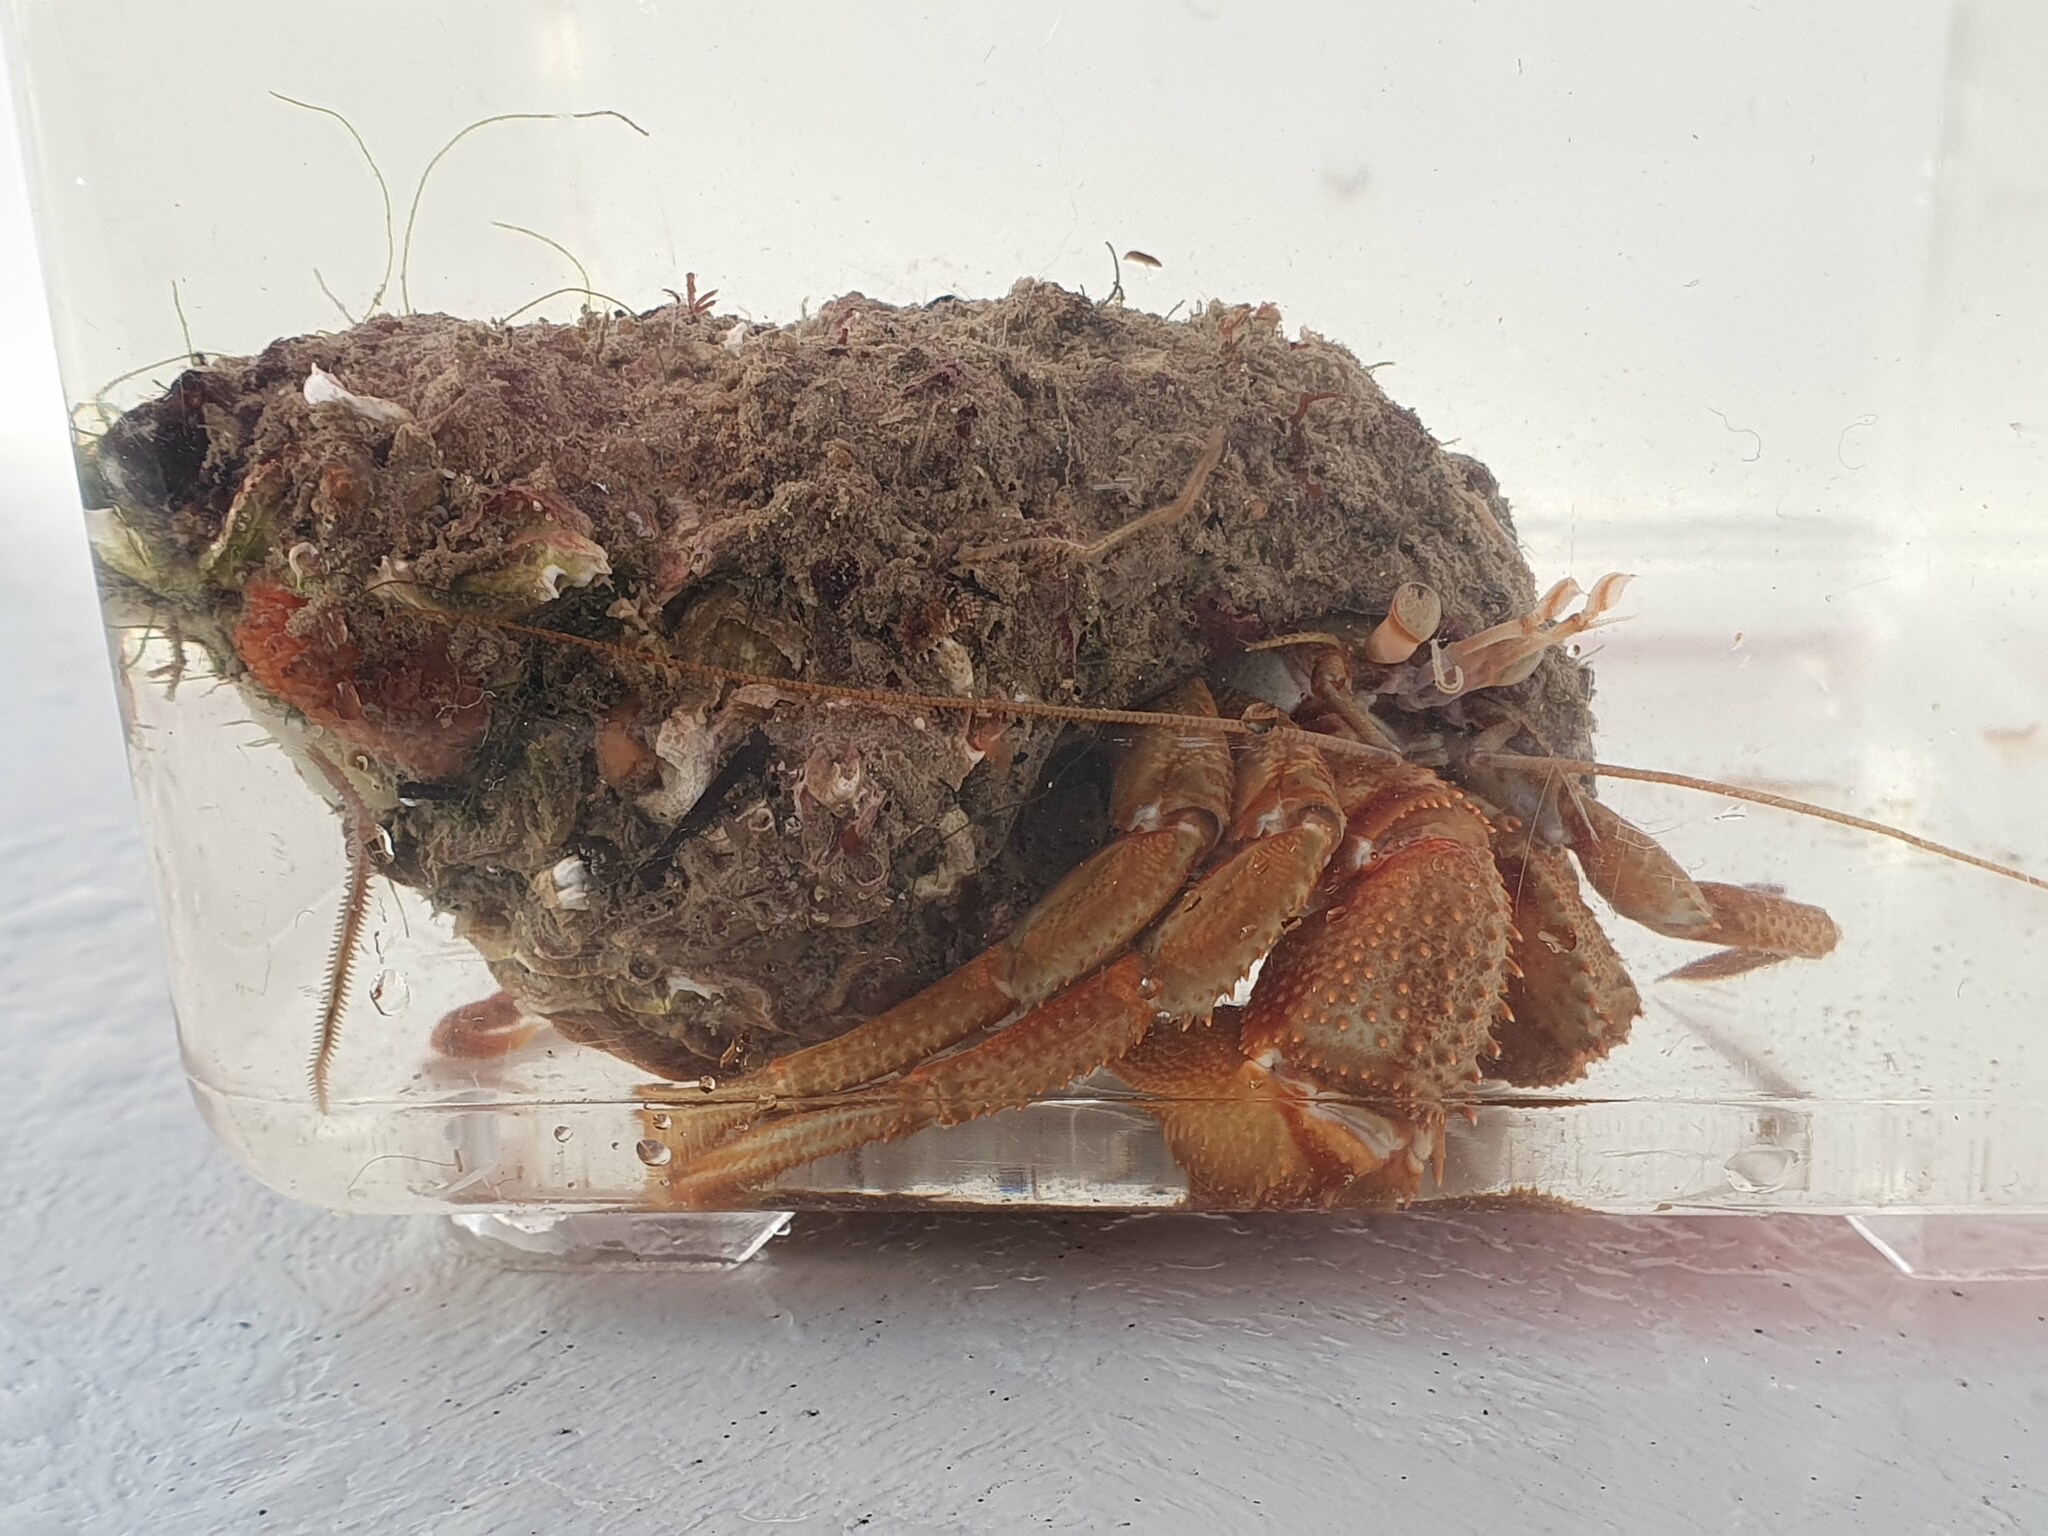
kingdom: Animalia
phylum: Arthropoda
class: Malacostraca
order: Decapoda
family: Paguridae
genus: Pagurus
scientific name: Pagurus bernhardus
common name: Hermit crab
